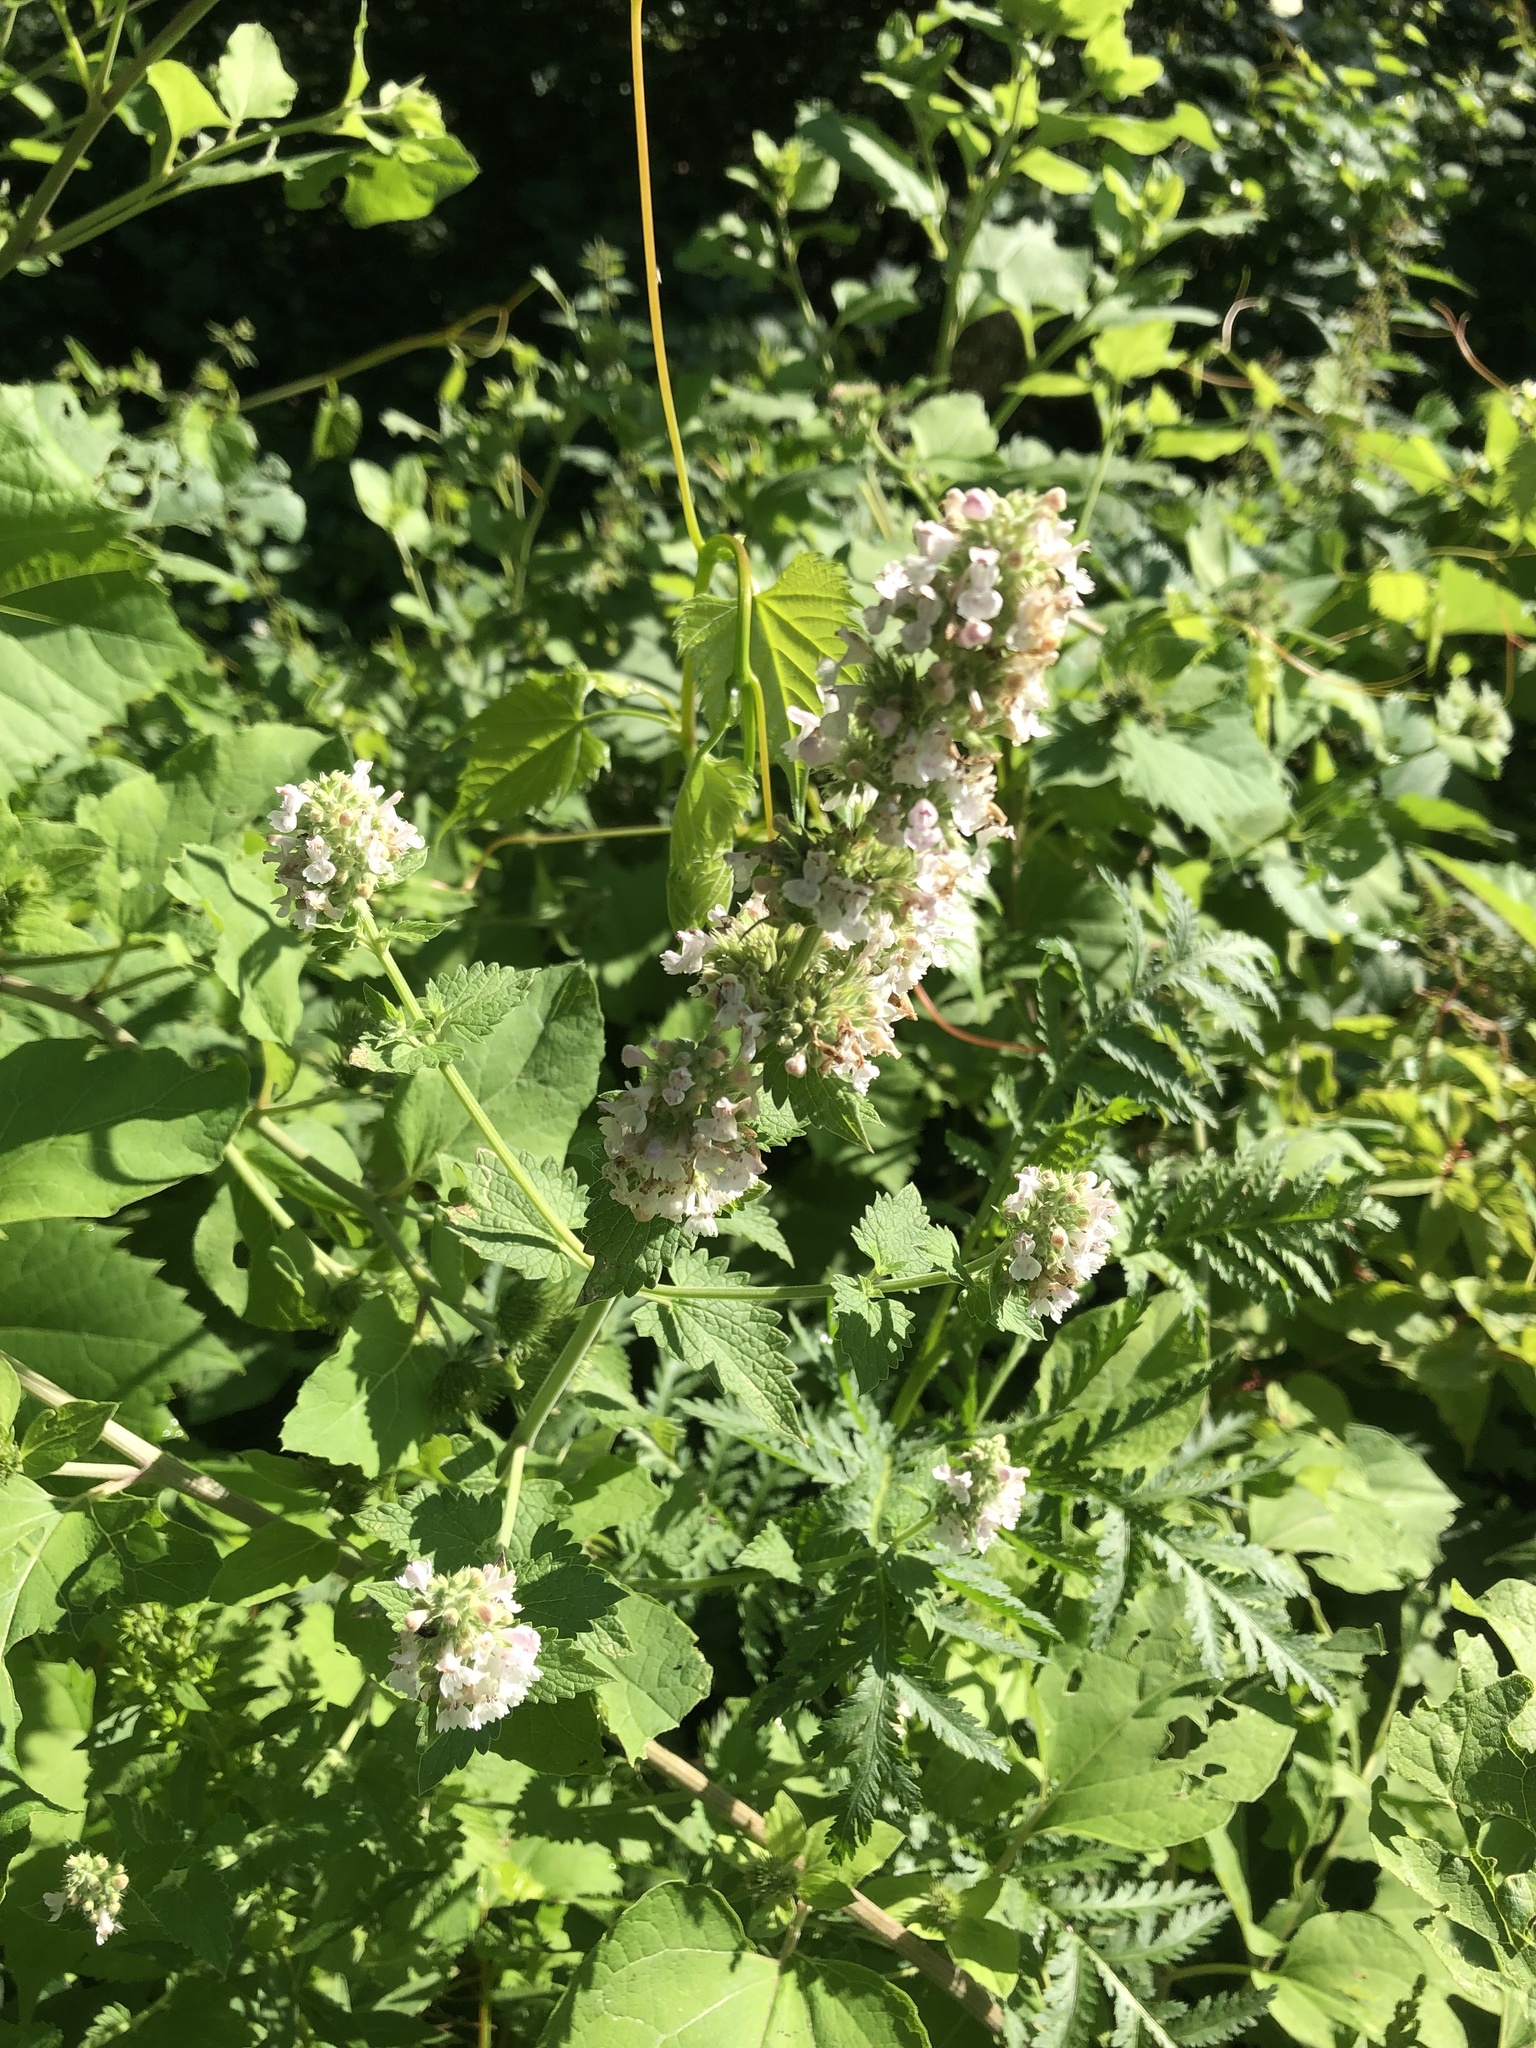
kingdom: Plantae
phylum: Tracheophyta
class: Magnoliopsida
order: Lamiales
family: Lamiaceae
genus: Nepeta
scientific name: Nepeta cataria
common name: Catnip
